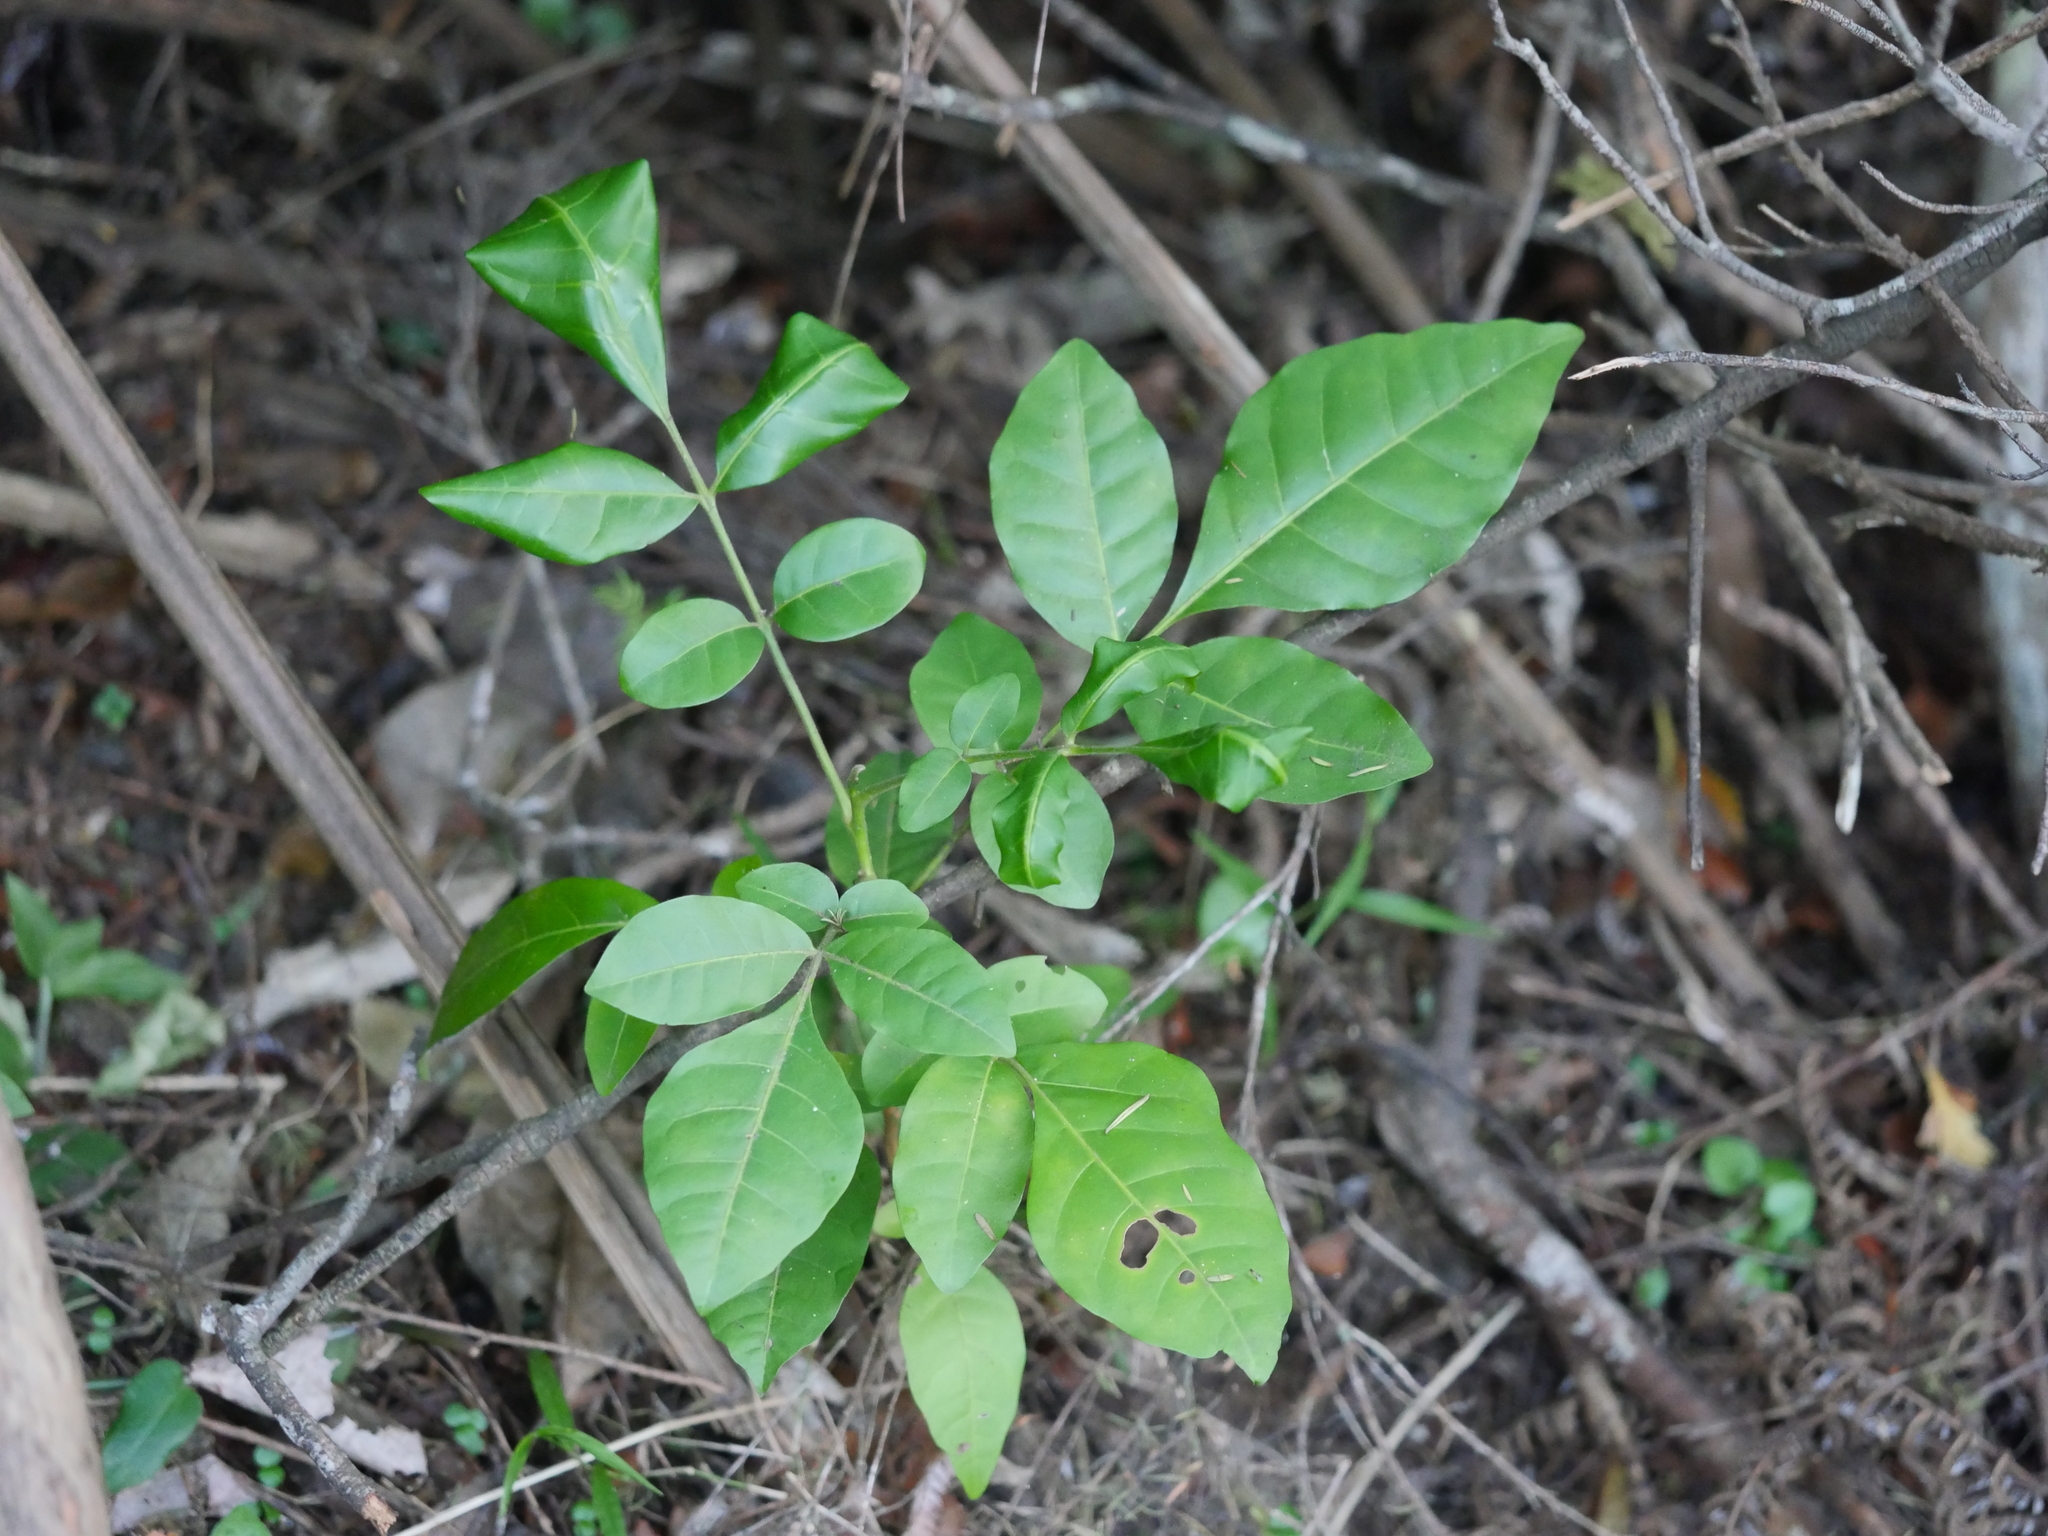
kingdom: Plantae
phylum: Tracheophyta
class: Magnoliopsida
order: Sapindales
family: Meliaceae
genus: Didymocheton
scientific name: Didymocheton spectabilis
